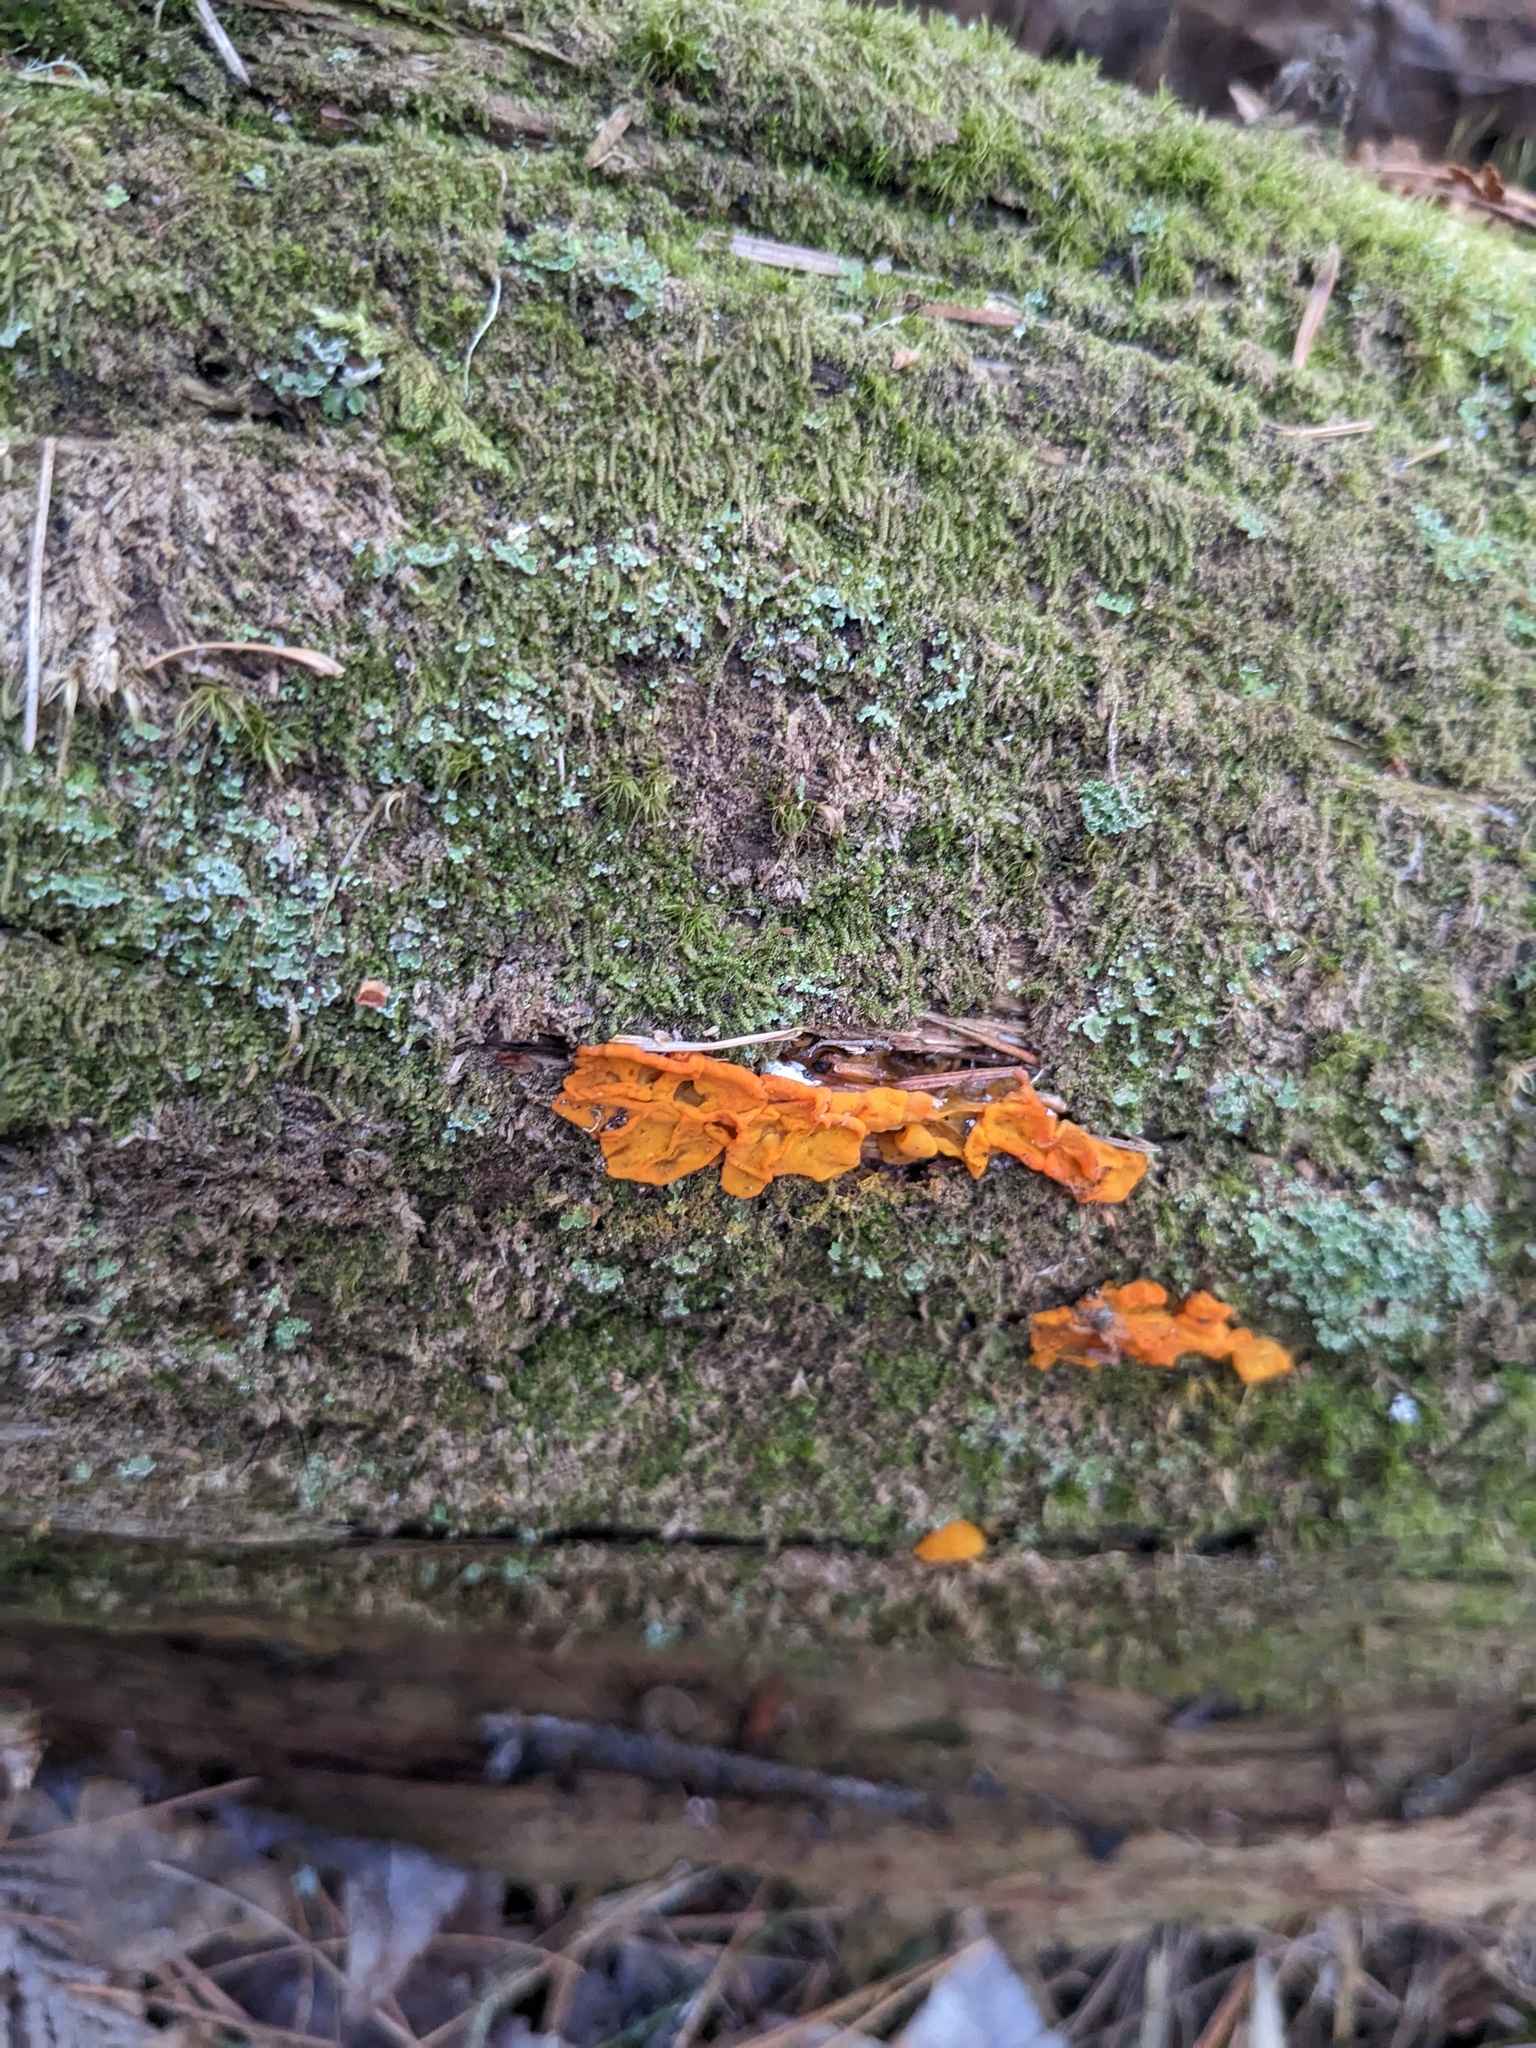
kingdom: Fungi
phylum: Basidiomycota
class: Dacrymycetes
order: Dacrymycetales
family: Dacrymycetaceae
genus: Dacrymyces
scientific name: Dacrymyces chrysospermus
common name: Orange jelly spot
